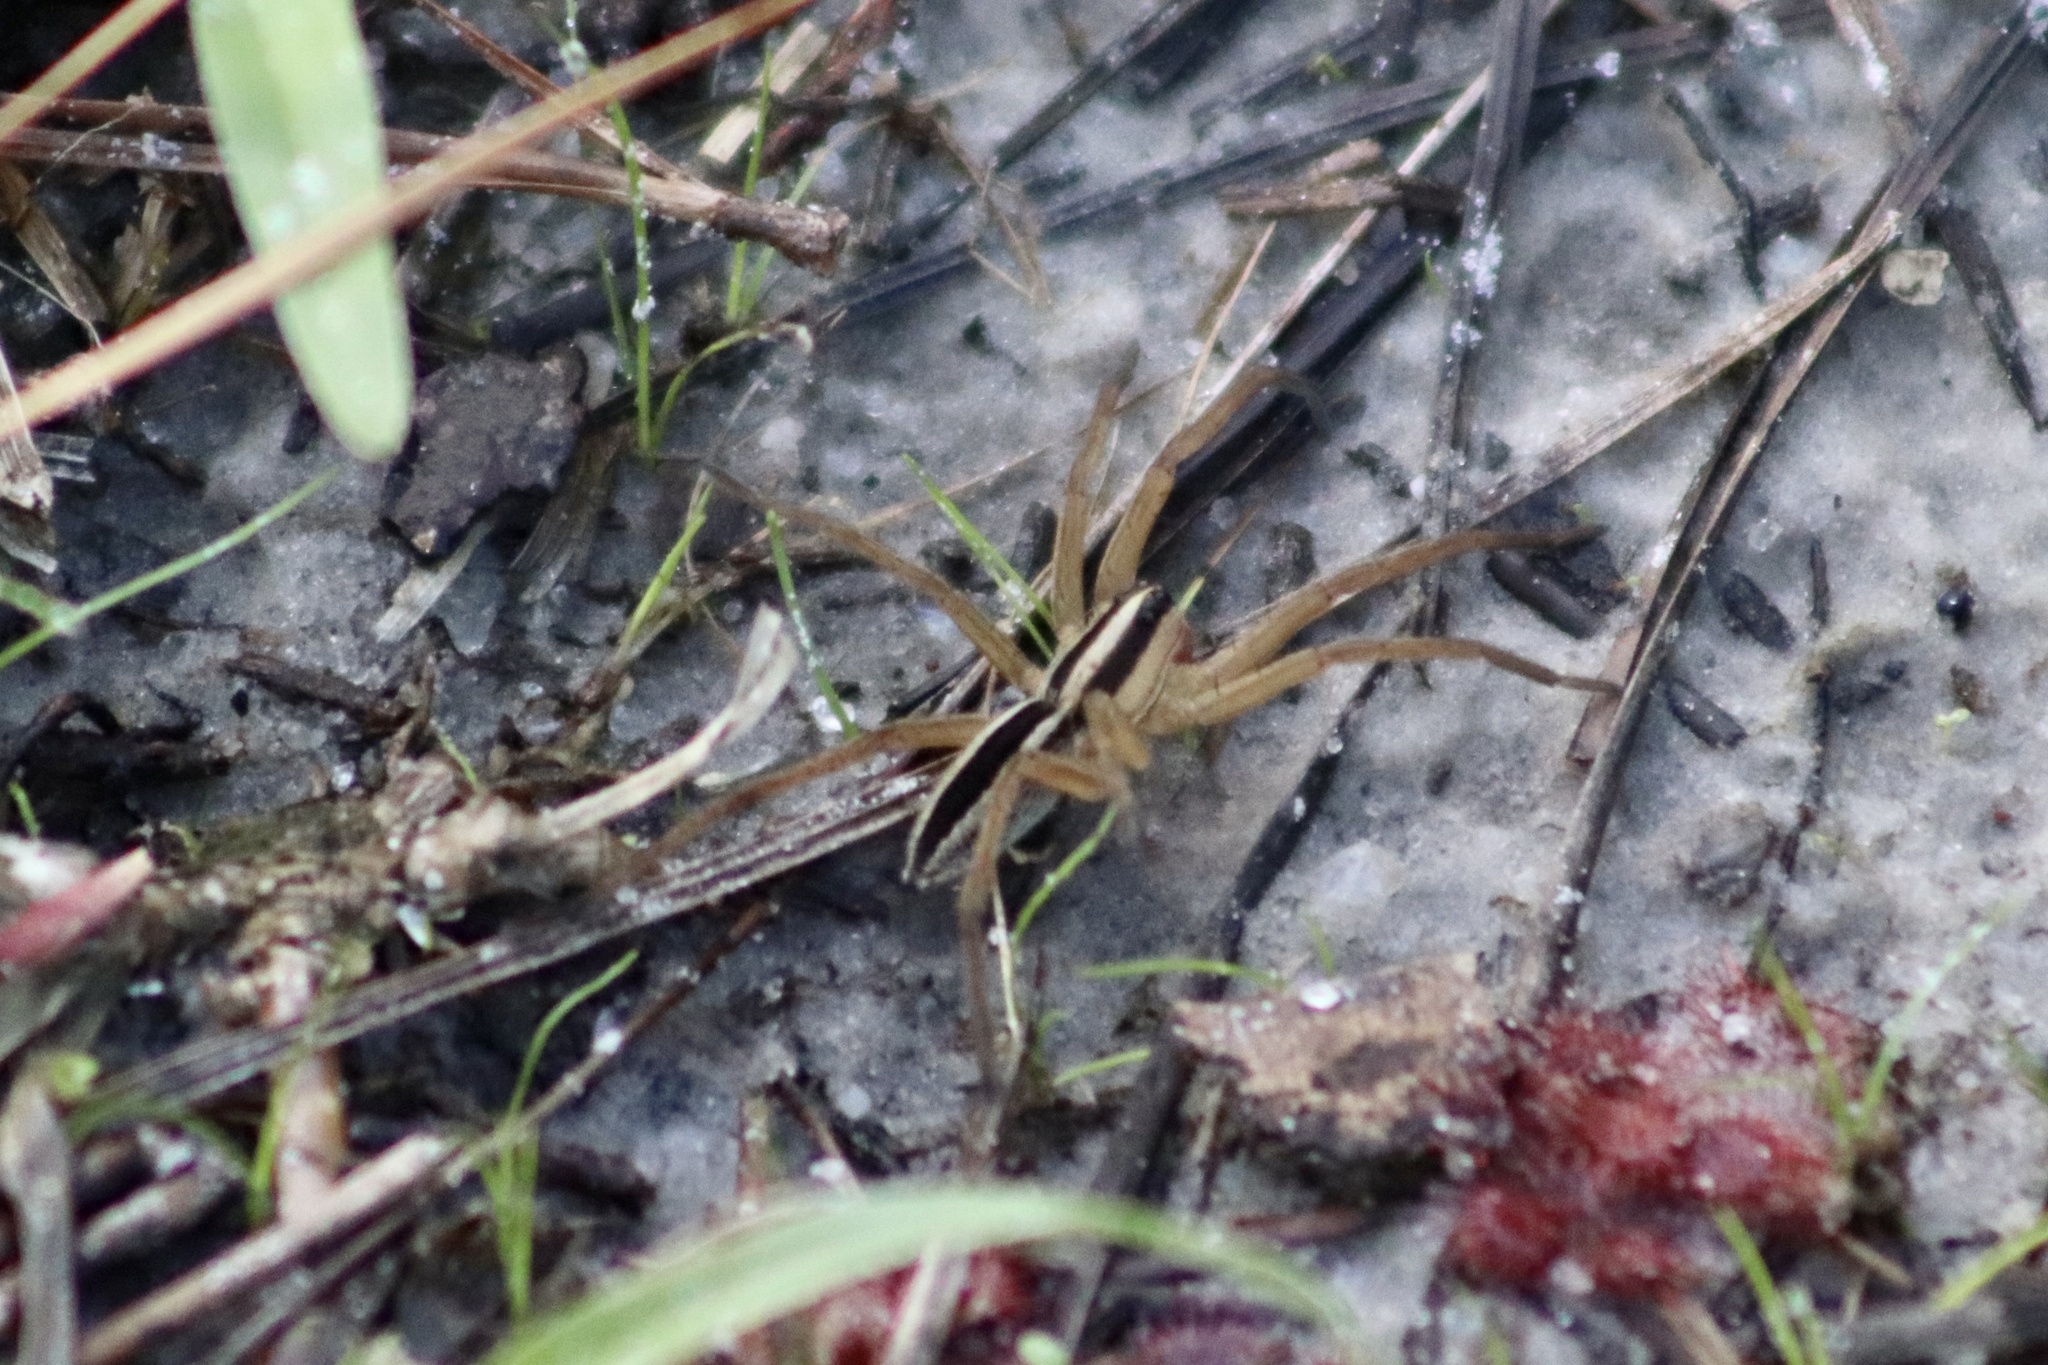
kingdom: Animalia
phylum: Arthropoda
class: Arachnida
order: Araneae
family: Lycosidae
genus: Rabidosa
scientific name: Rabidosa punctulata
